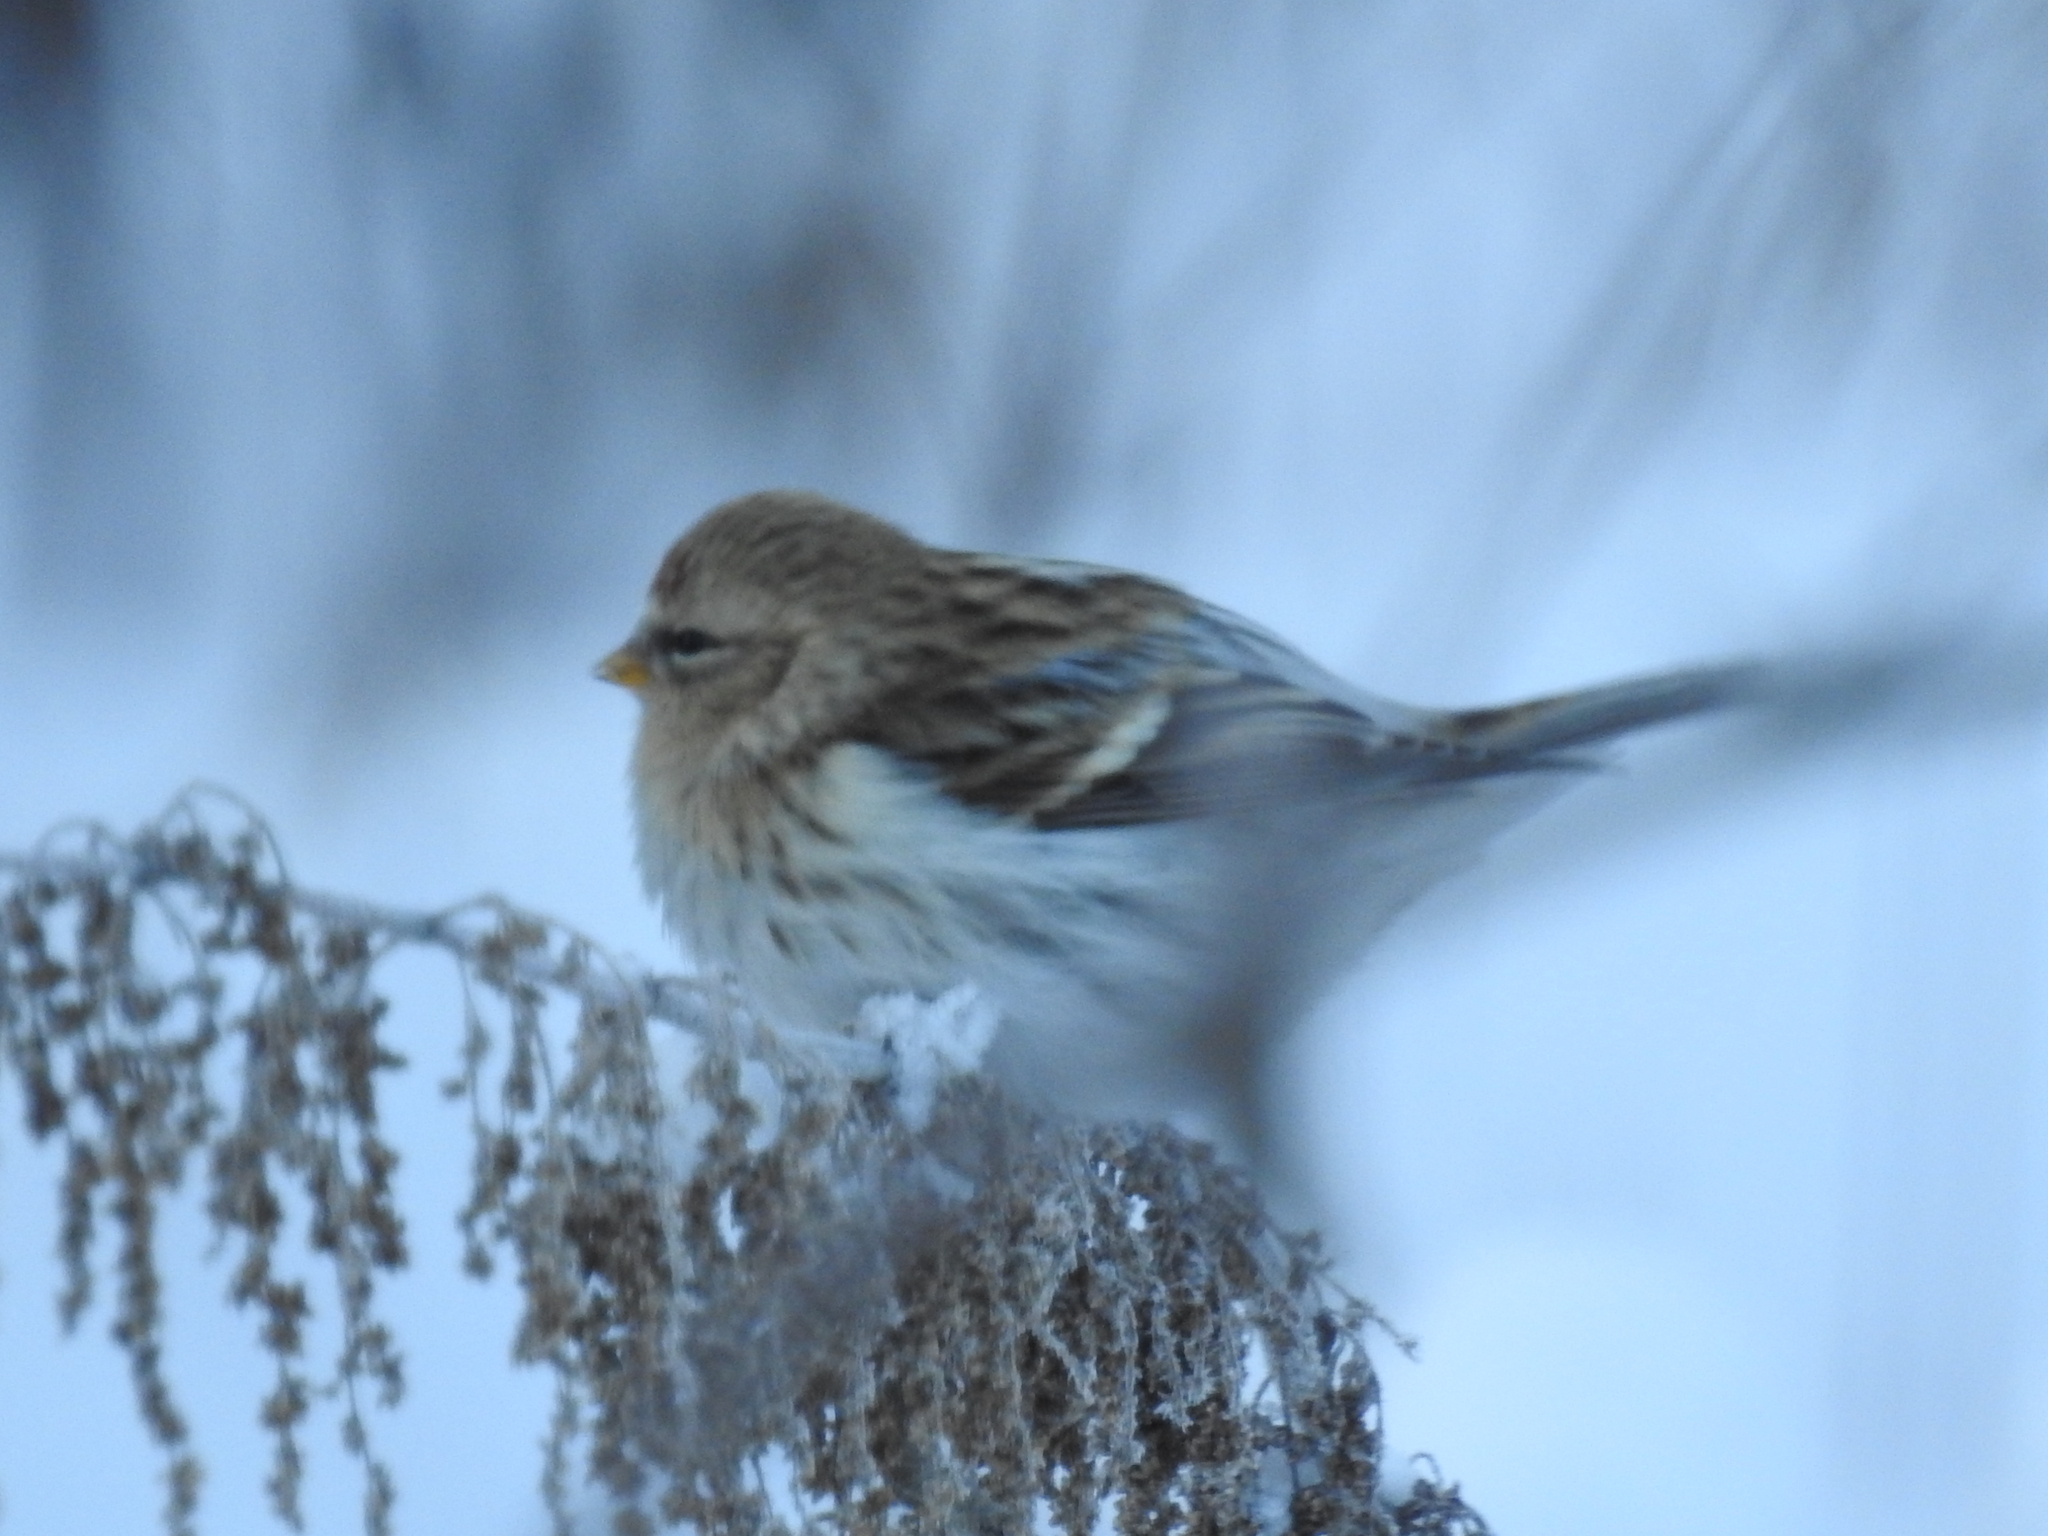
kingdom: Animalia
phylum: Chordata
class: Aves
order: Passeriformes
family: Fringillidae
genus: Acanthis
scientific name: Acanthis flammea
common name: Common redpoll
